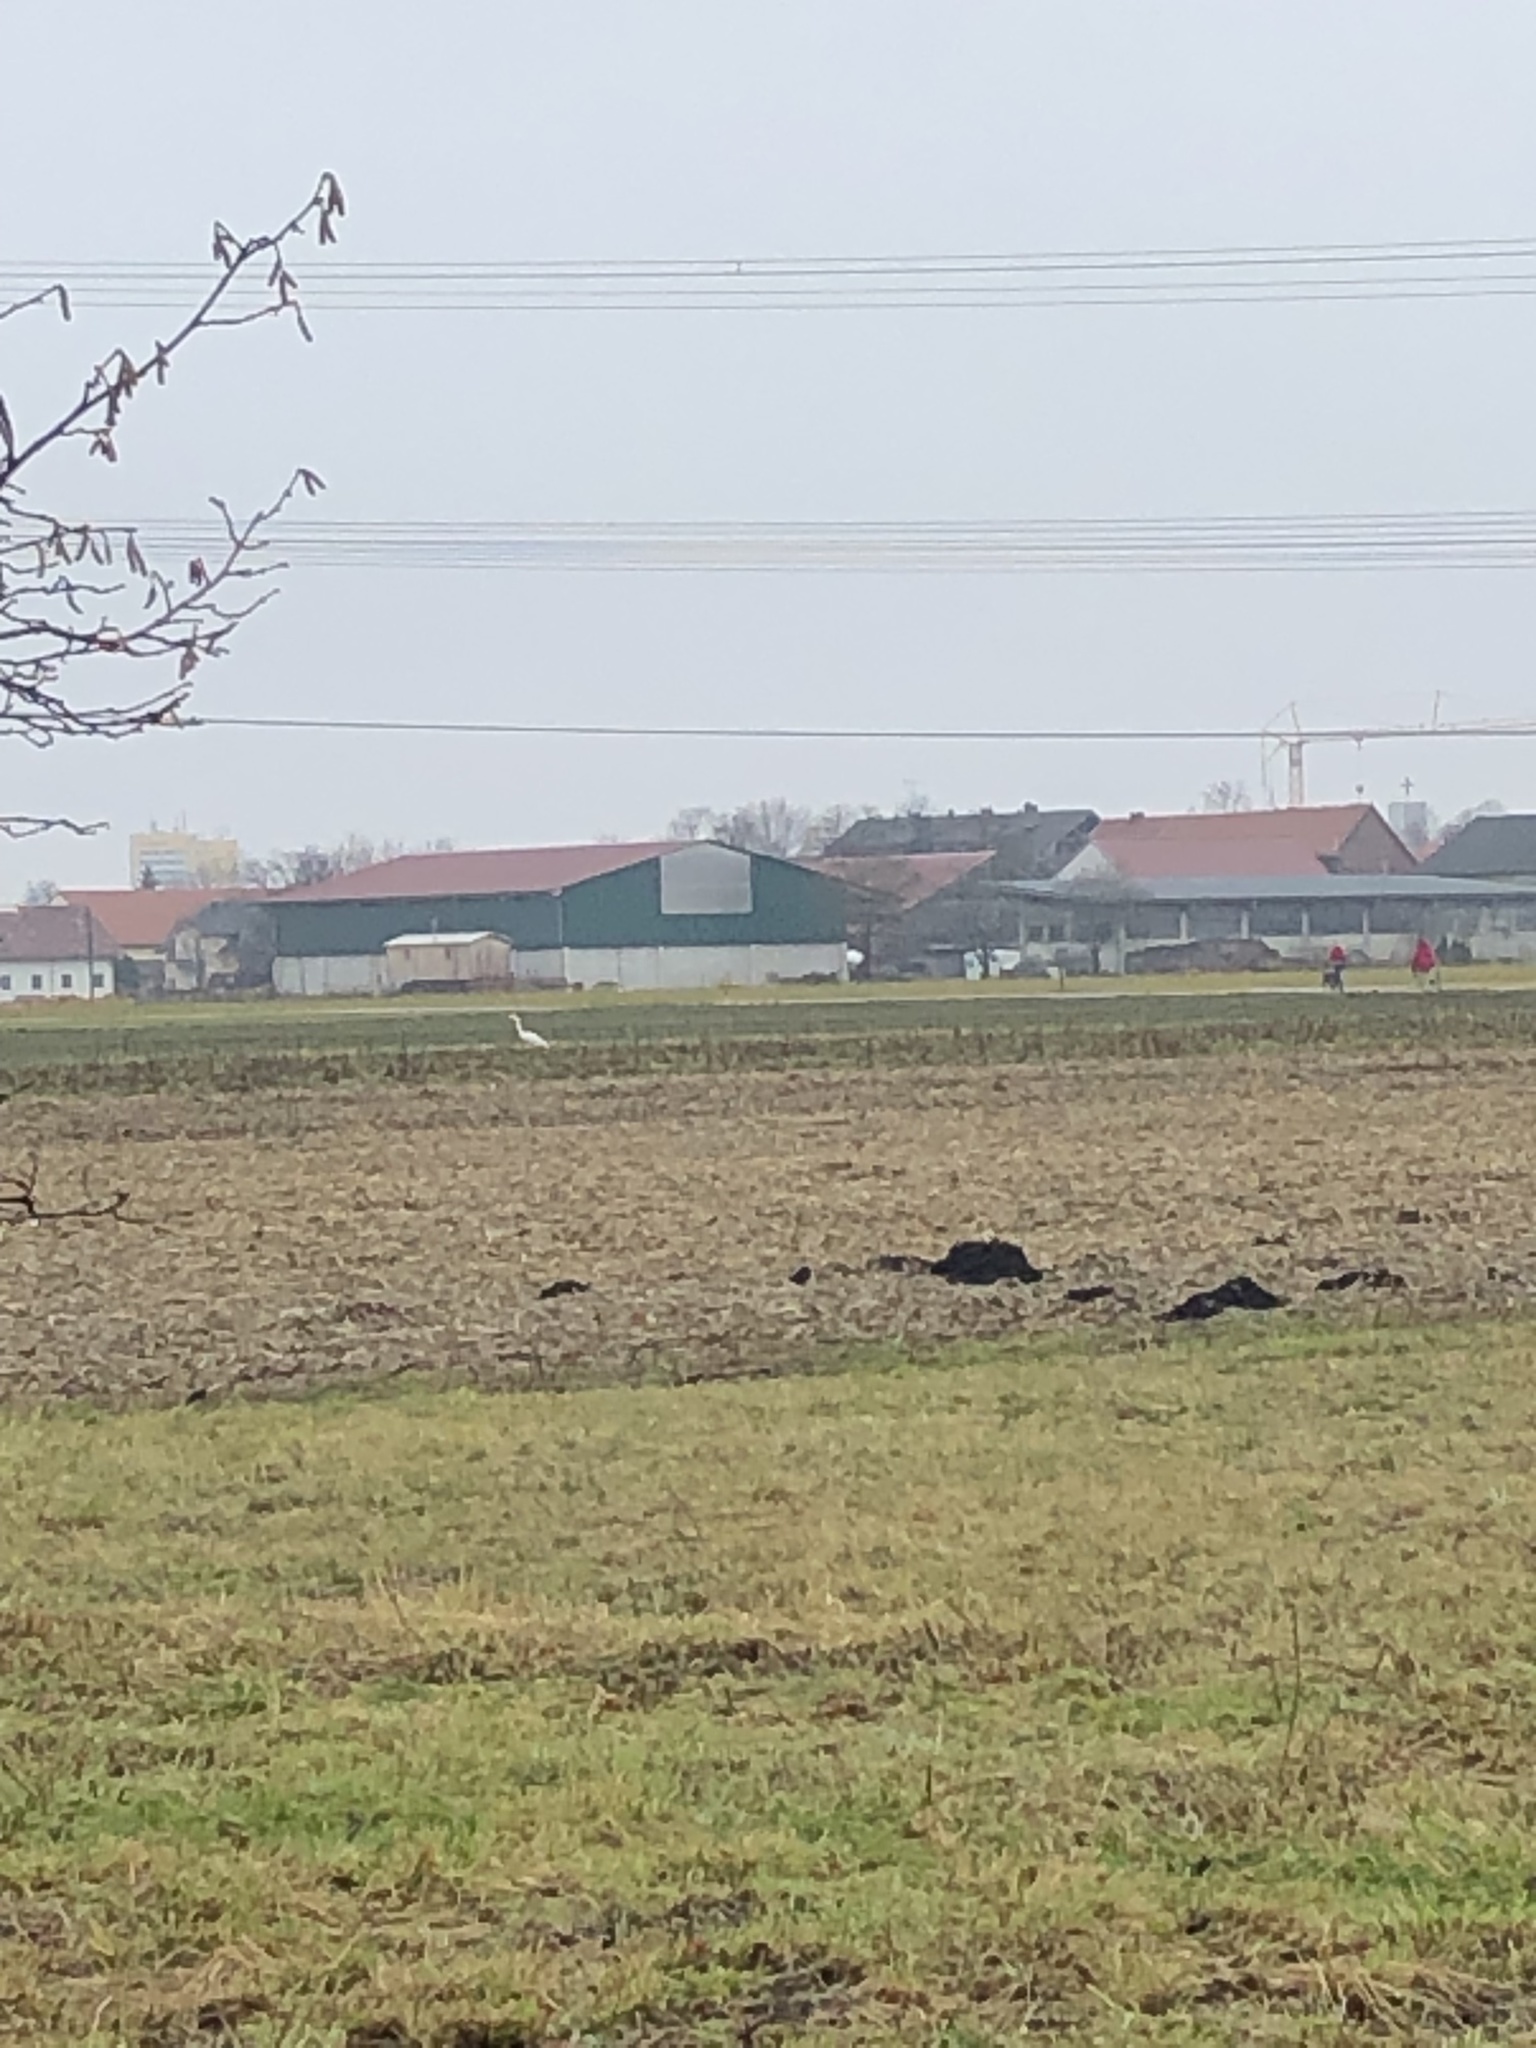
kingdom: Animalia
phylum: Chordata
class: Aves
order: Pelecaniformes
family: Ardeidae
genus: Ardea
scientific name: Ardea alba
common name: Great egret
